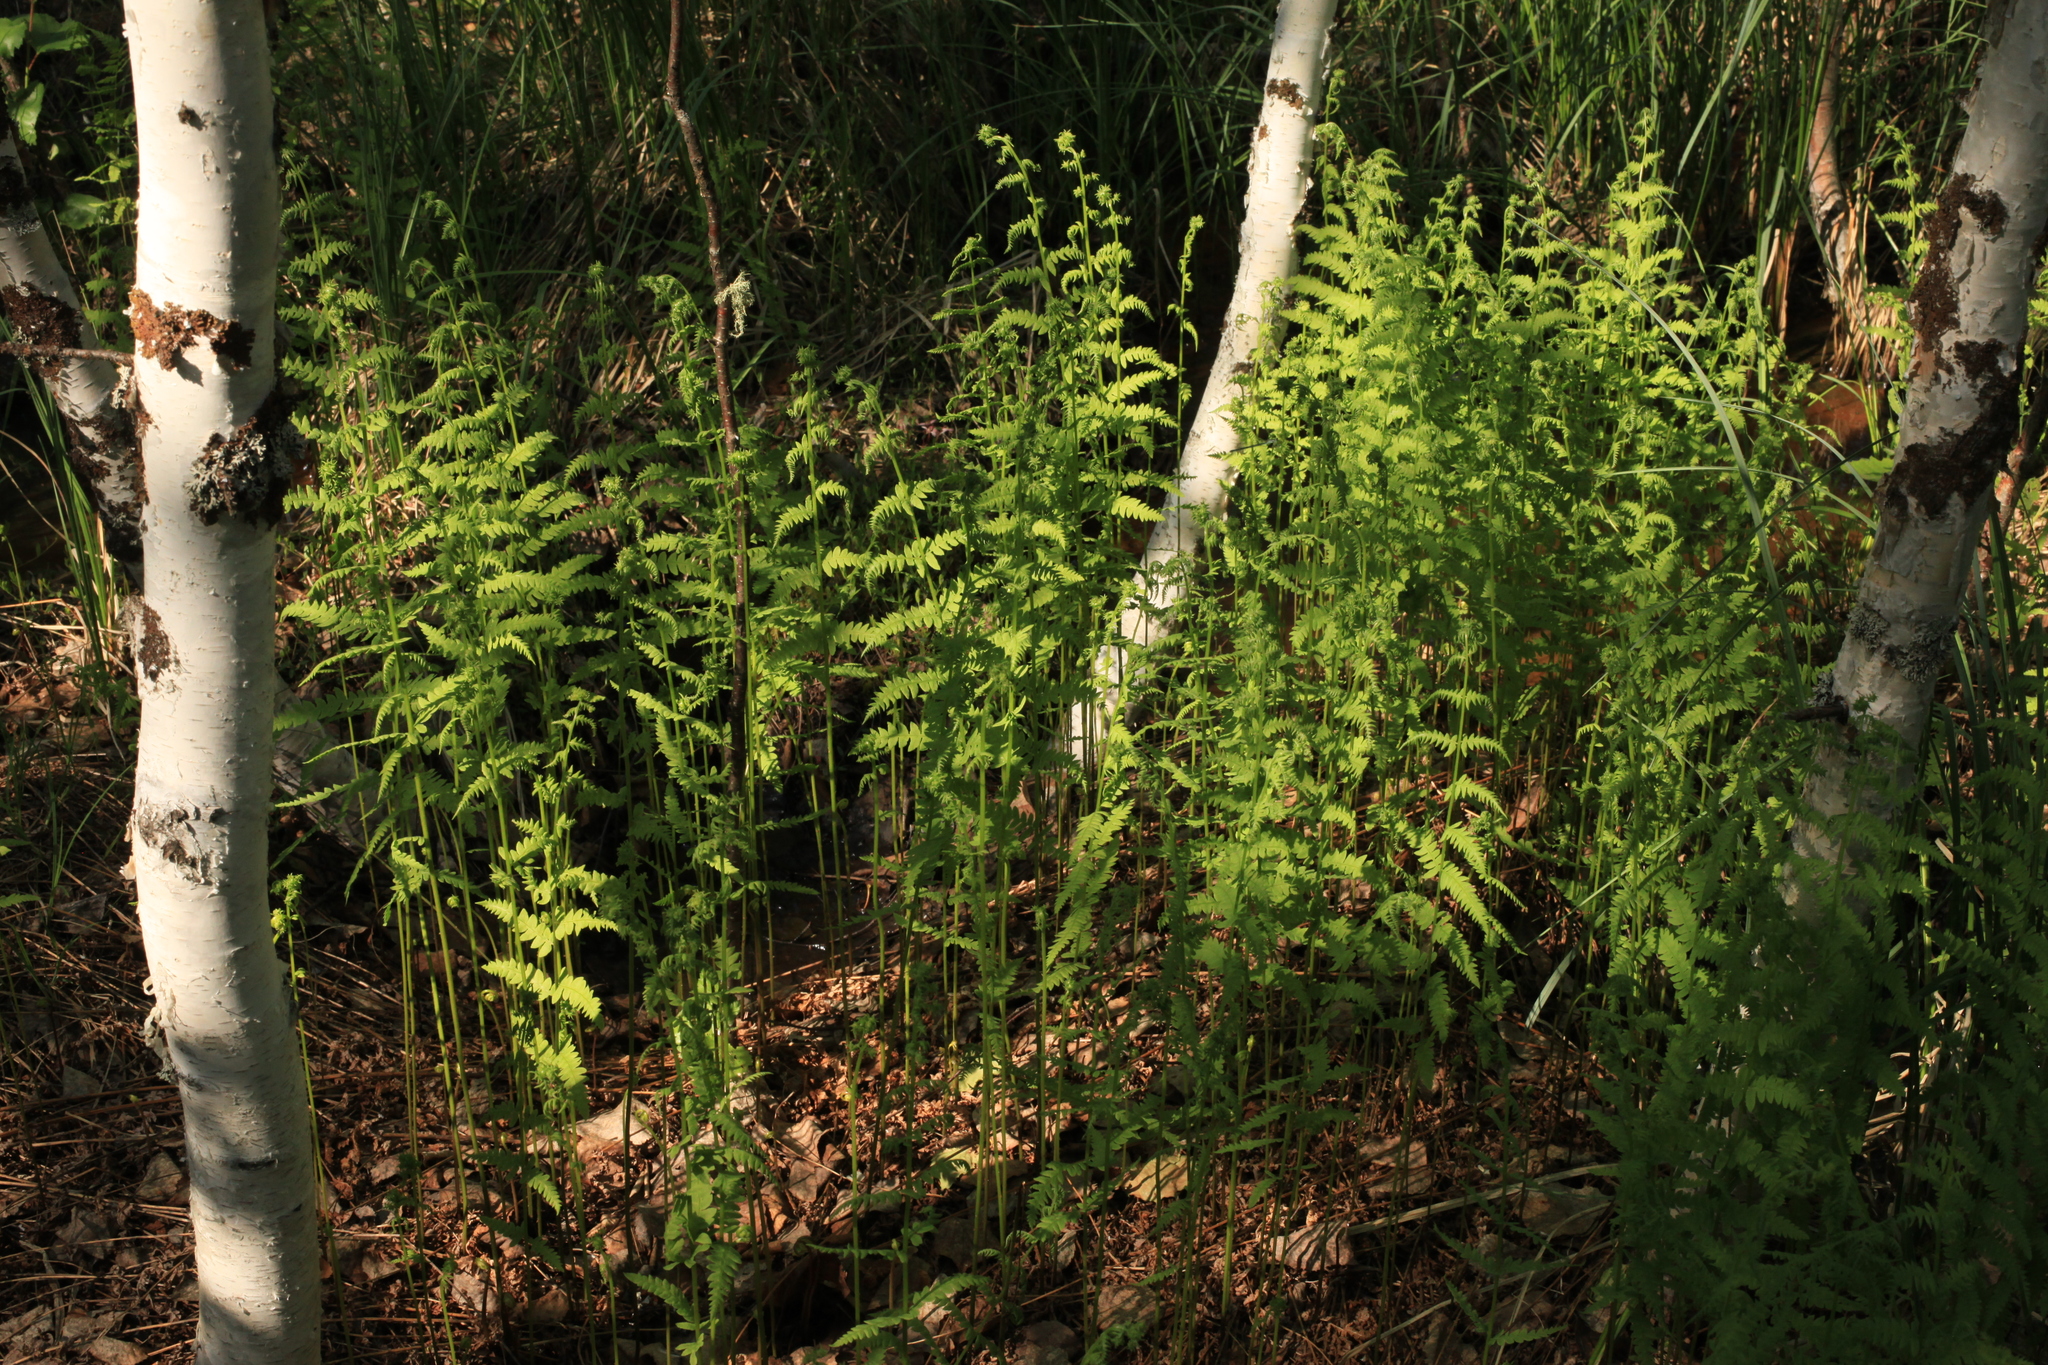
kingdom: Plantae
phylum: Tracheophyta
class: Polypodiopsida
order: Polypodiales
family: Thelypteridaceae
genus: Thelypteris
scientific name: Thelypteris palustris
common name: Marsh fern
